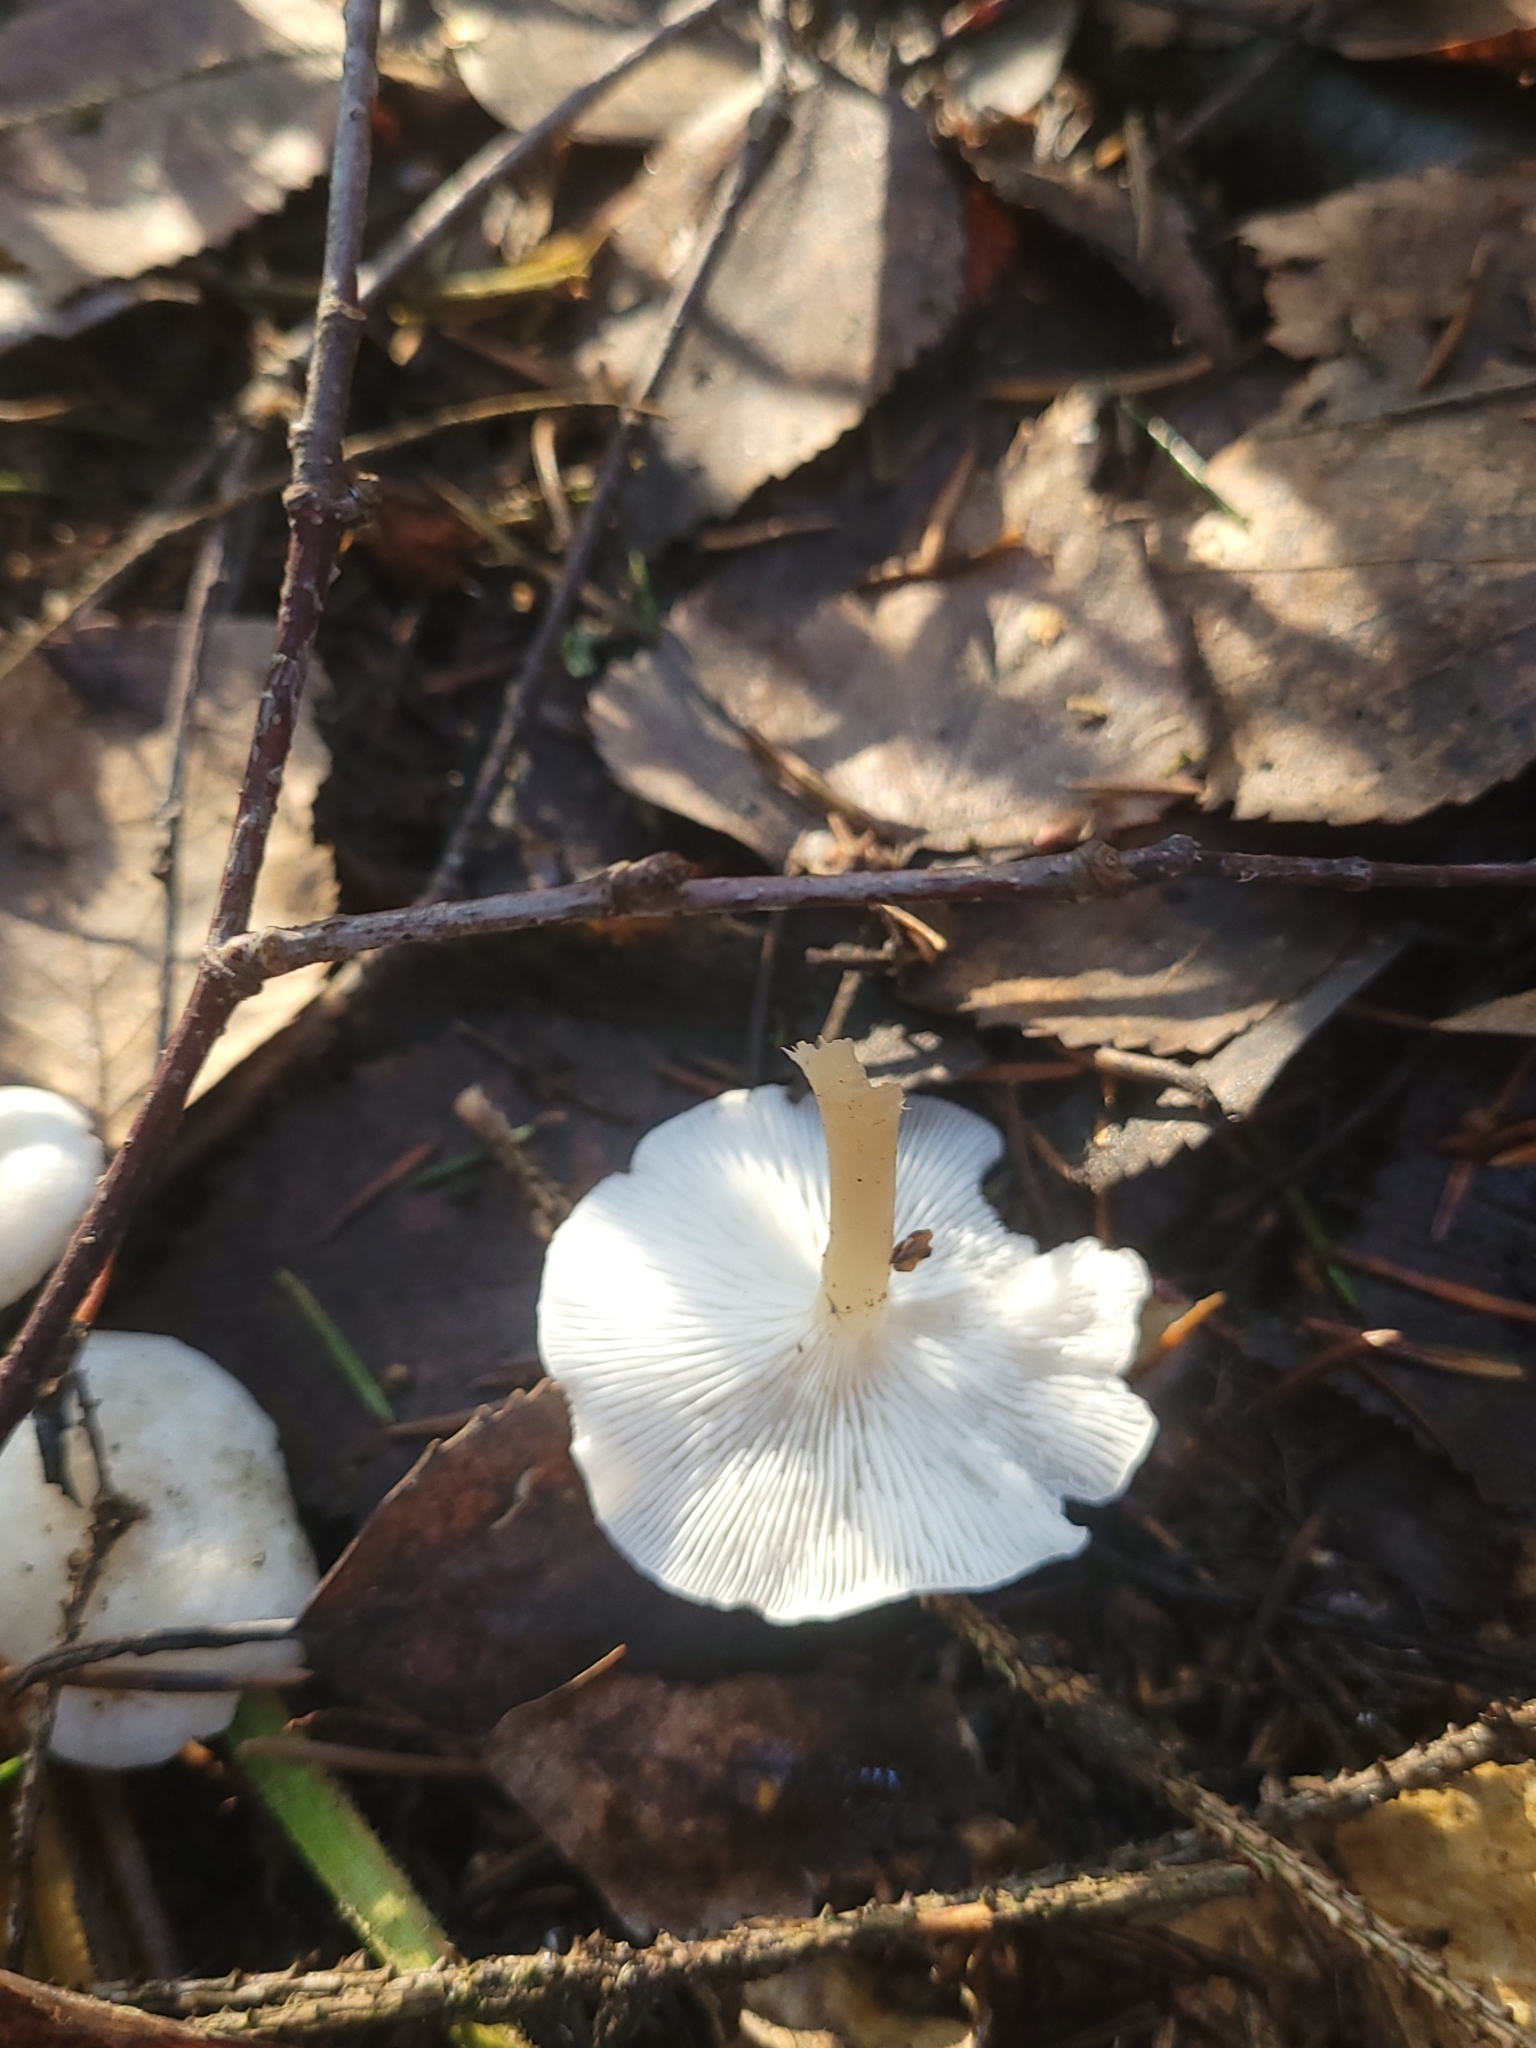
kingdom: Fungi
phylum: Basidiomycota
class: Agaricomycetes
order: Agaricales
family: Tricholomataceae
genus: Collybia
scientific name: Collybia phylladophila
